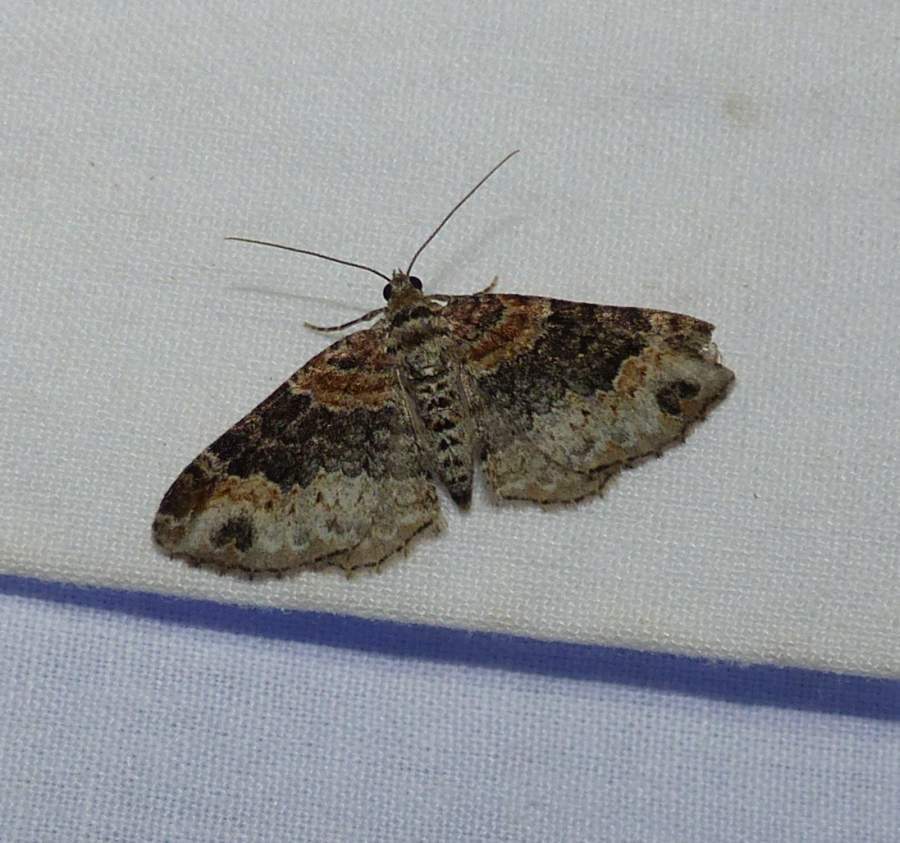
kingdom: Animalia
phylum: Arthropoda
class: Insecta
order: Lepidoptera
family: Geometridae
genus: Xanthorhoe
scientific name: Xanthorhoe ferrugata
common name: Dark-barred twin-spot carpet
